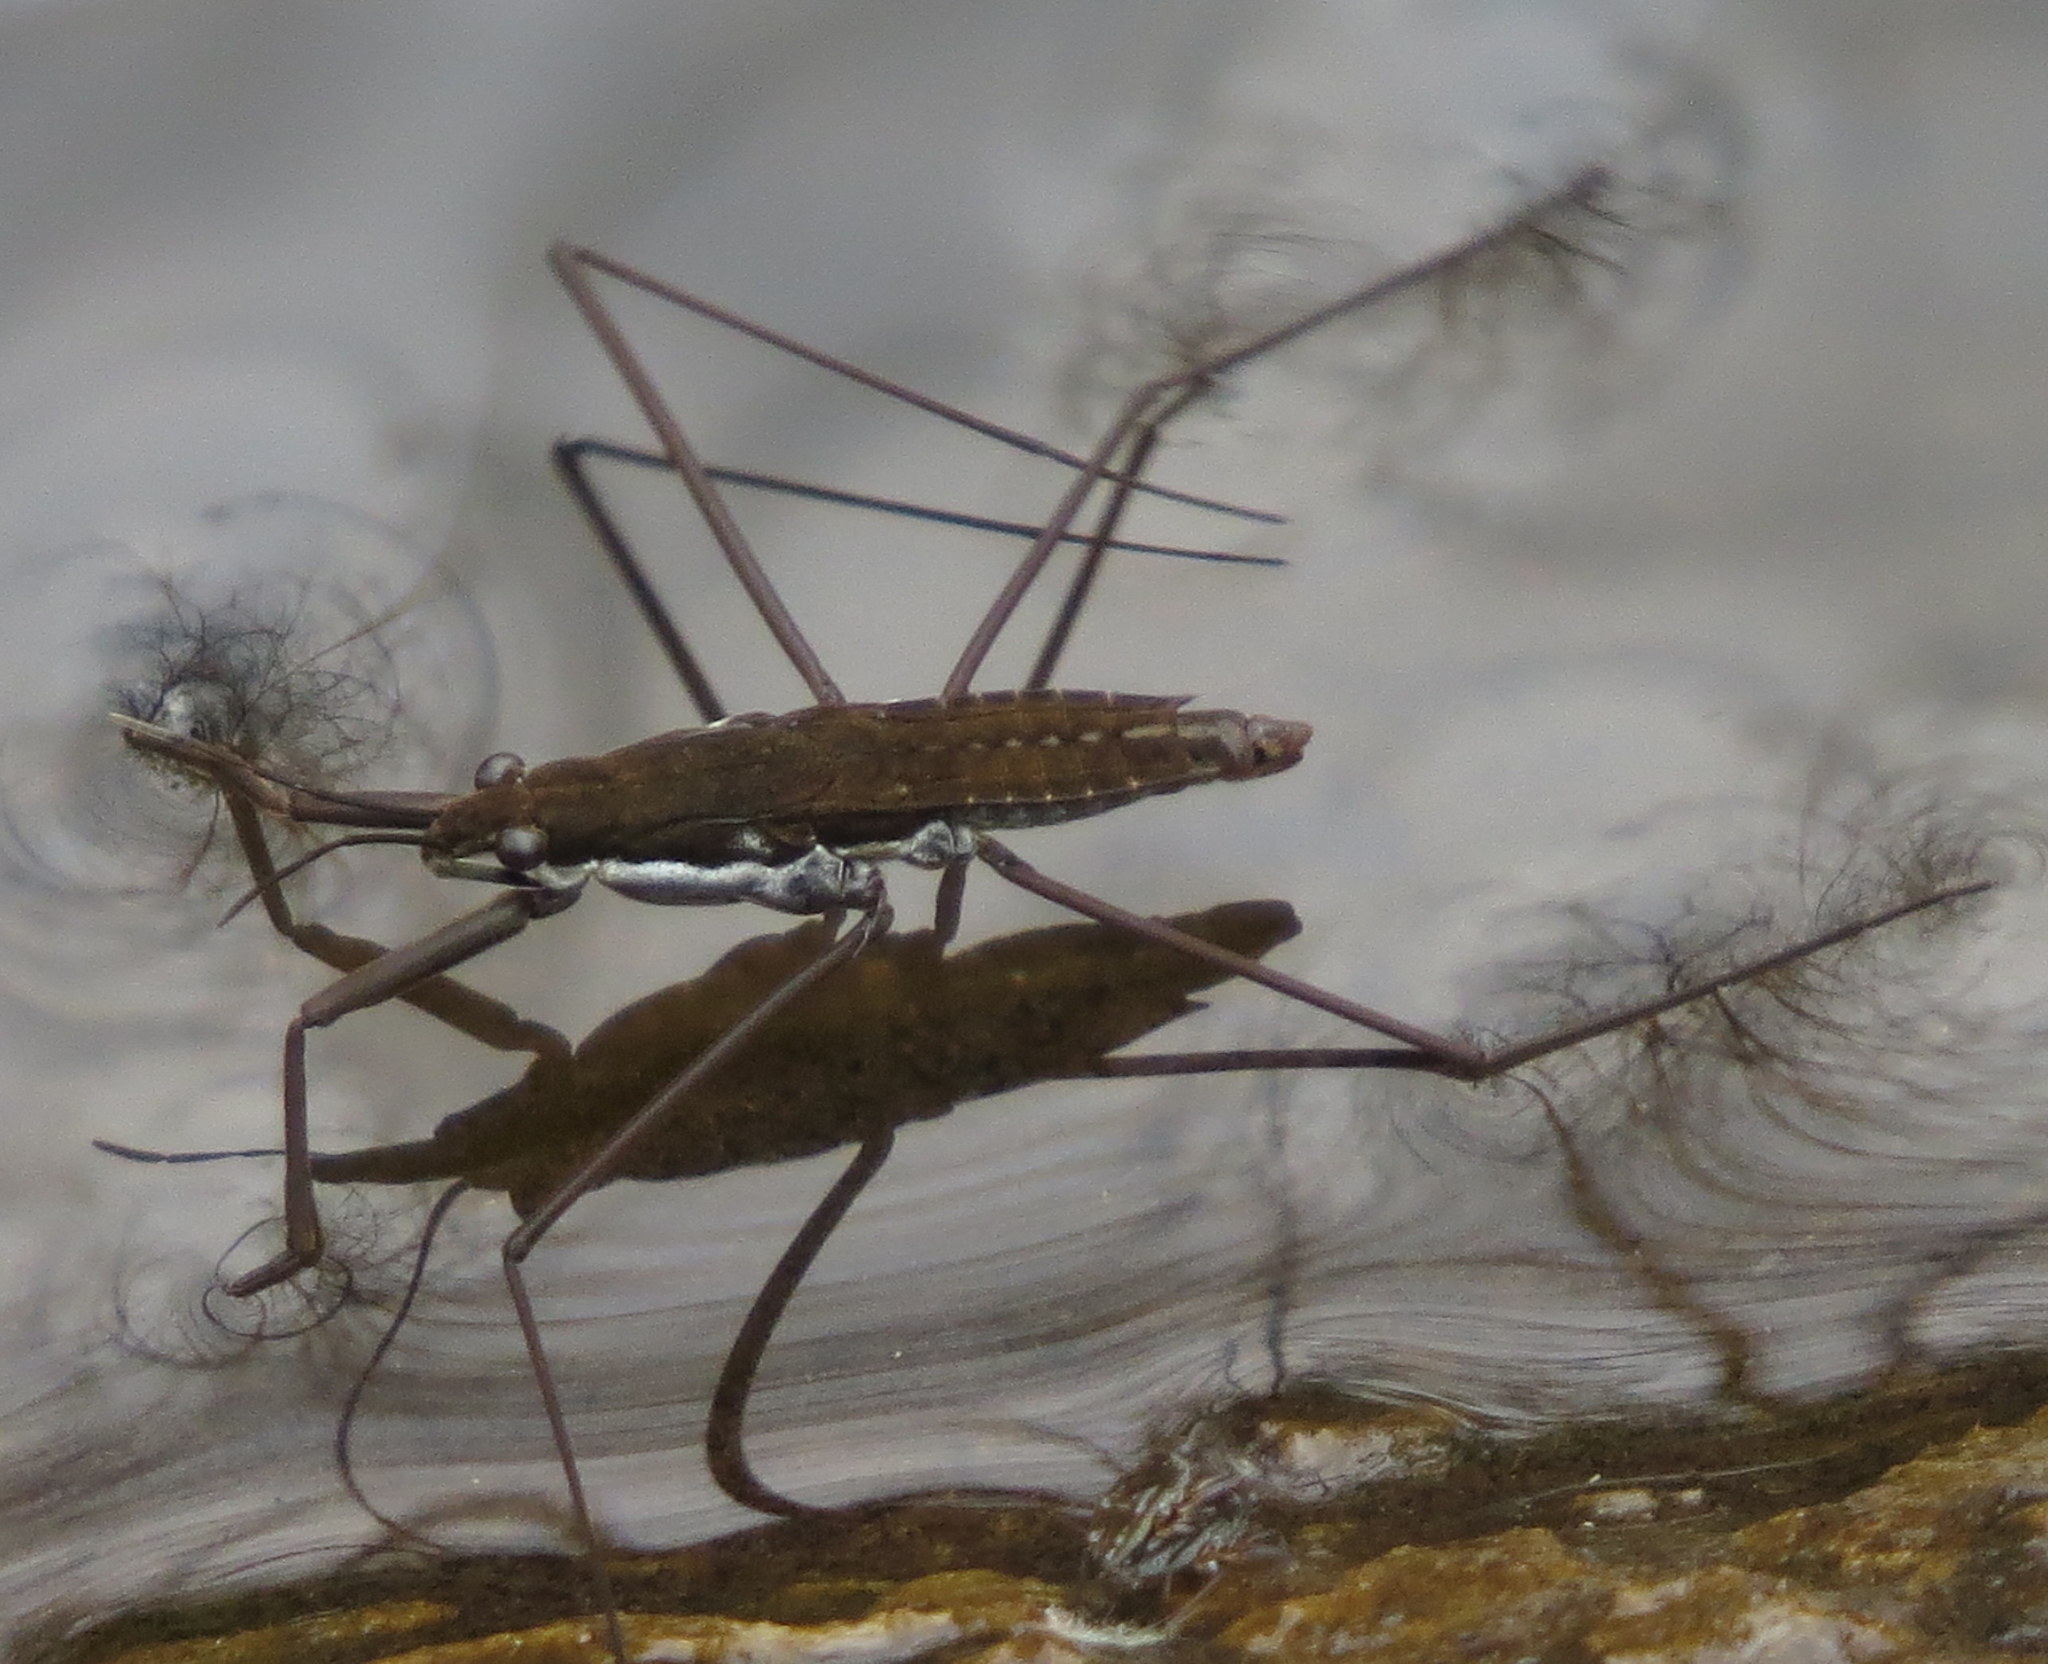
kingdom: Animalia
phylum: Arthropoda
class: Insecta
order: Hemiptera
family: Gerridae
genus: Aquarius
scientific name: Aquarius remigis
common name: Common water strider
